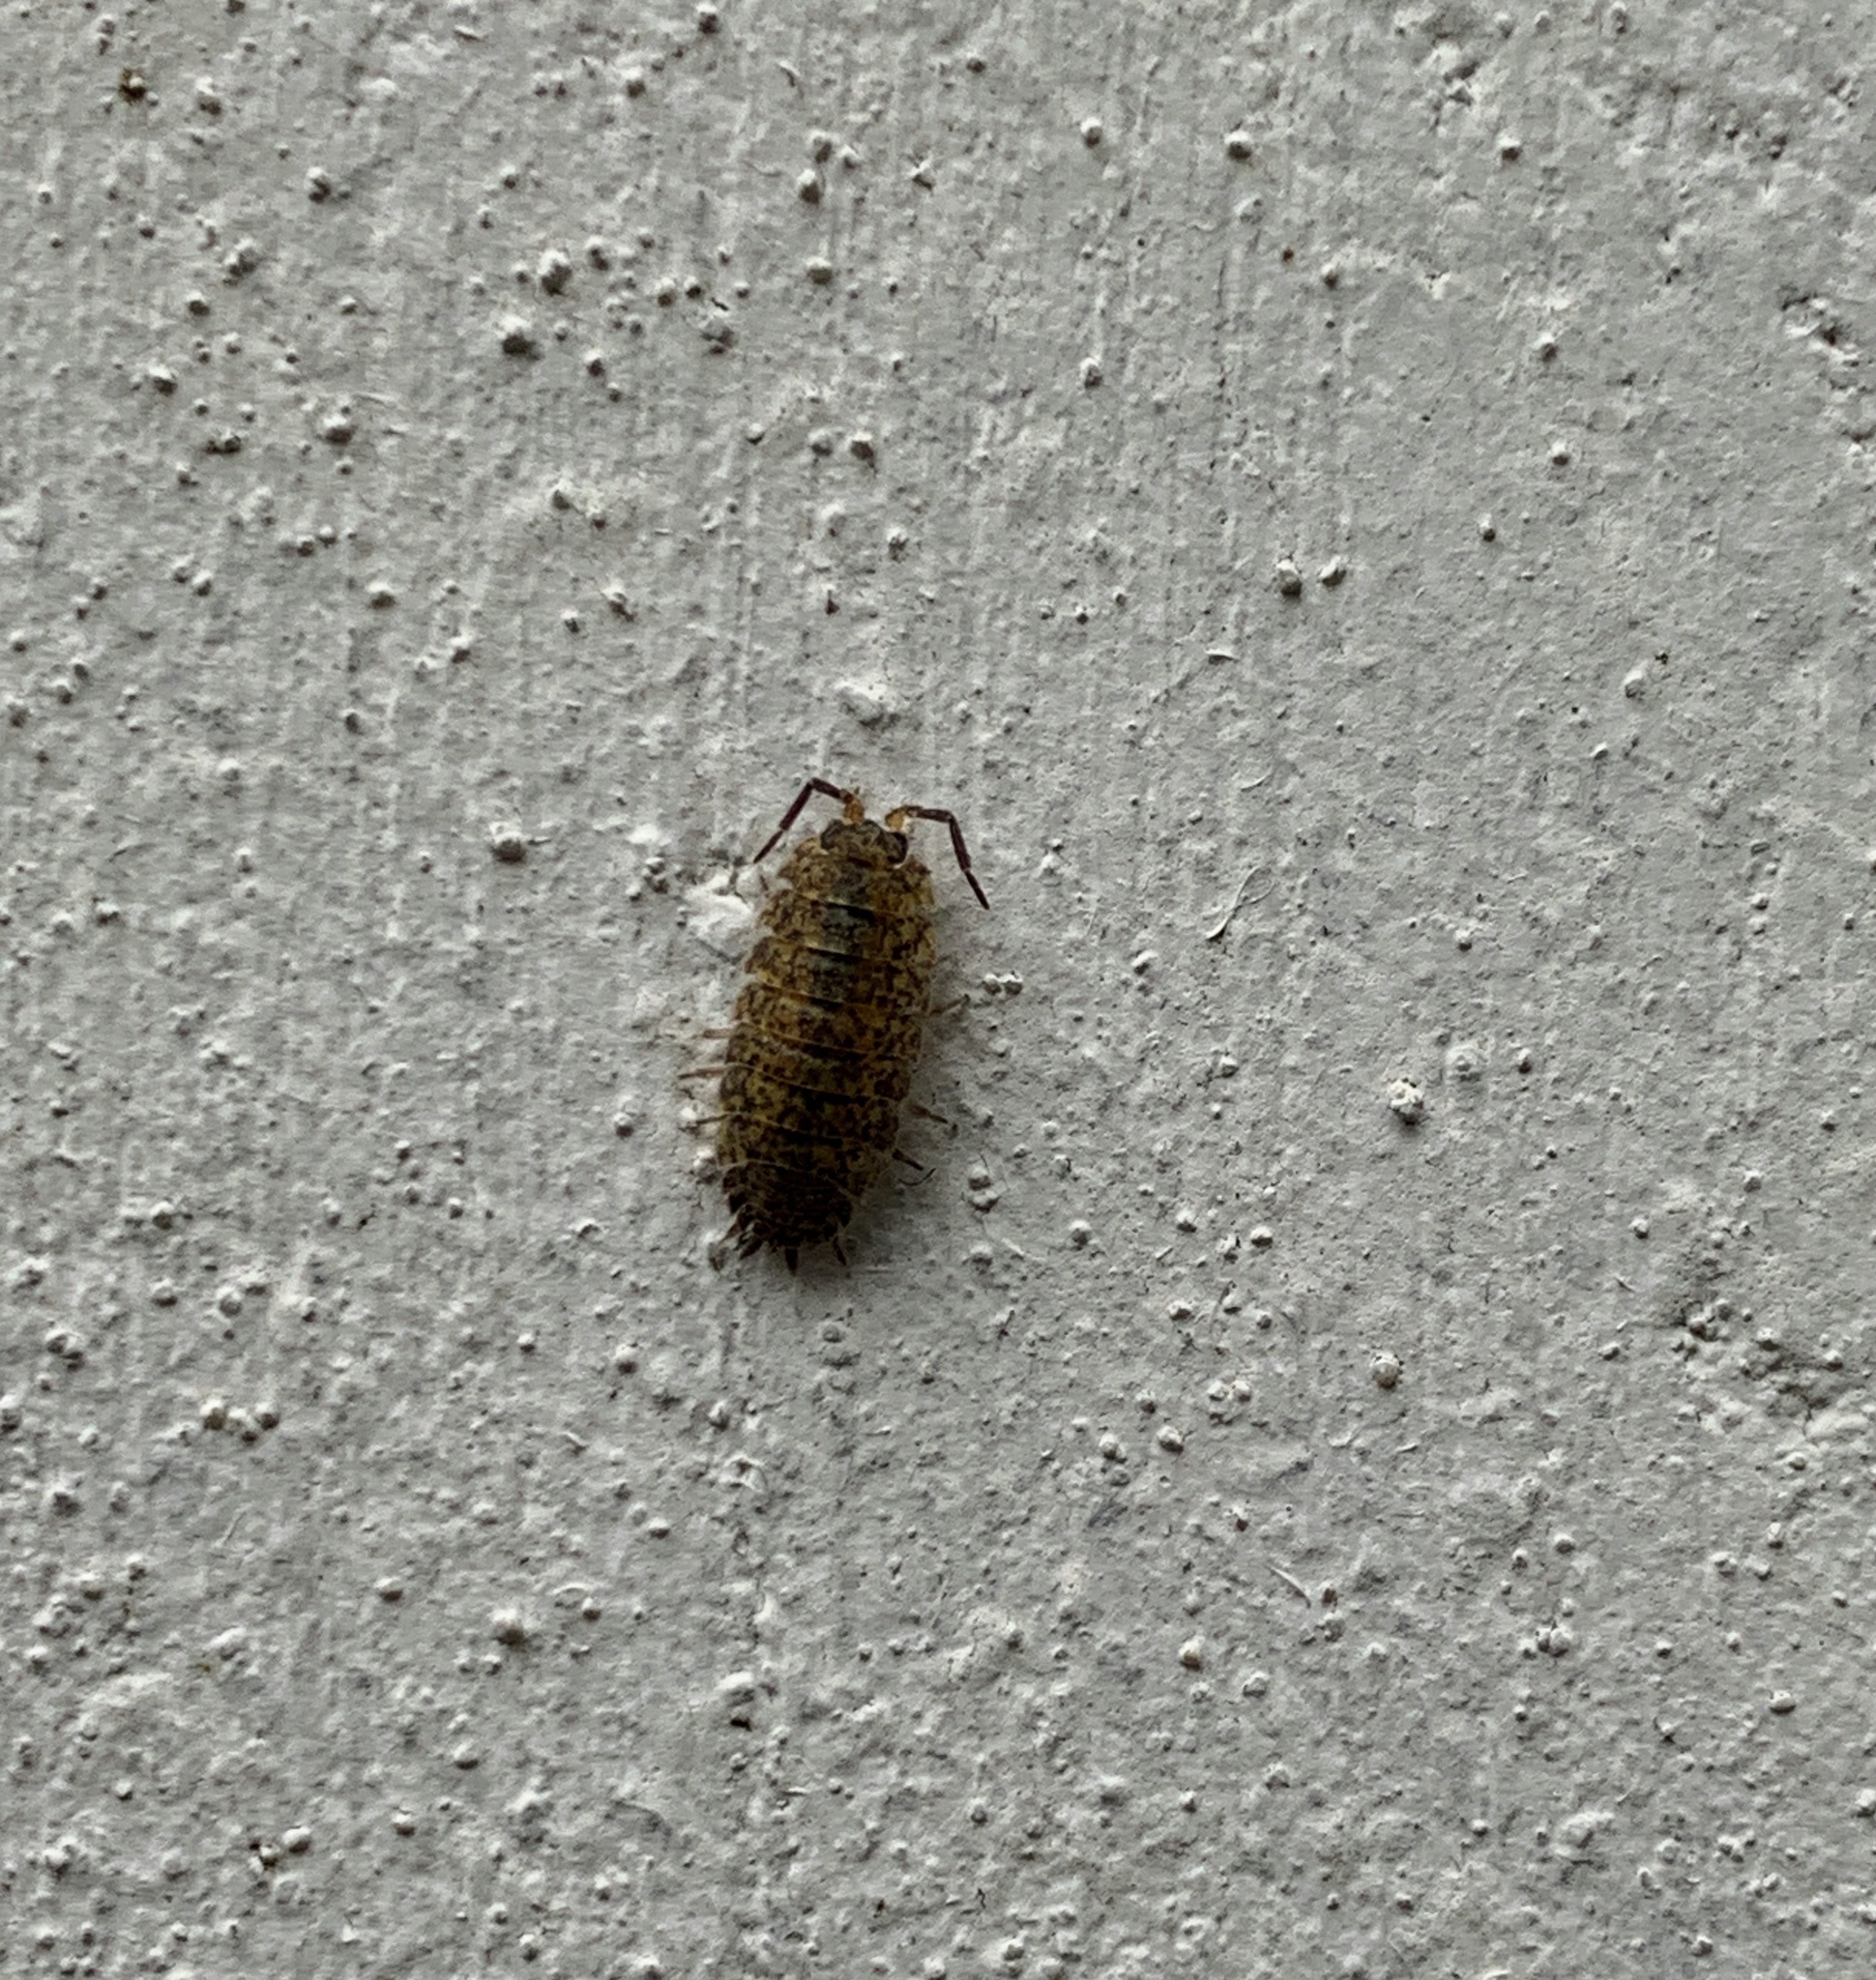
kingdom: Animalia
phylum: Arthropoda
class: Malacostraca
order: Isopoda
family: Porcellionidae
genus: Porcellio
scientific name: Porcellio scaber
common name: Common rough woodlouse
